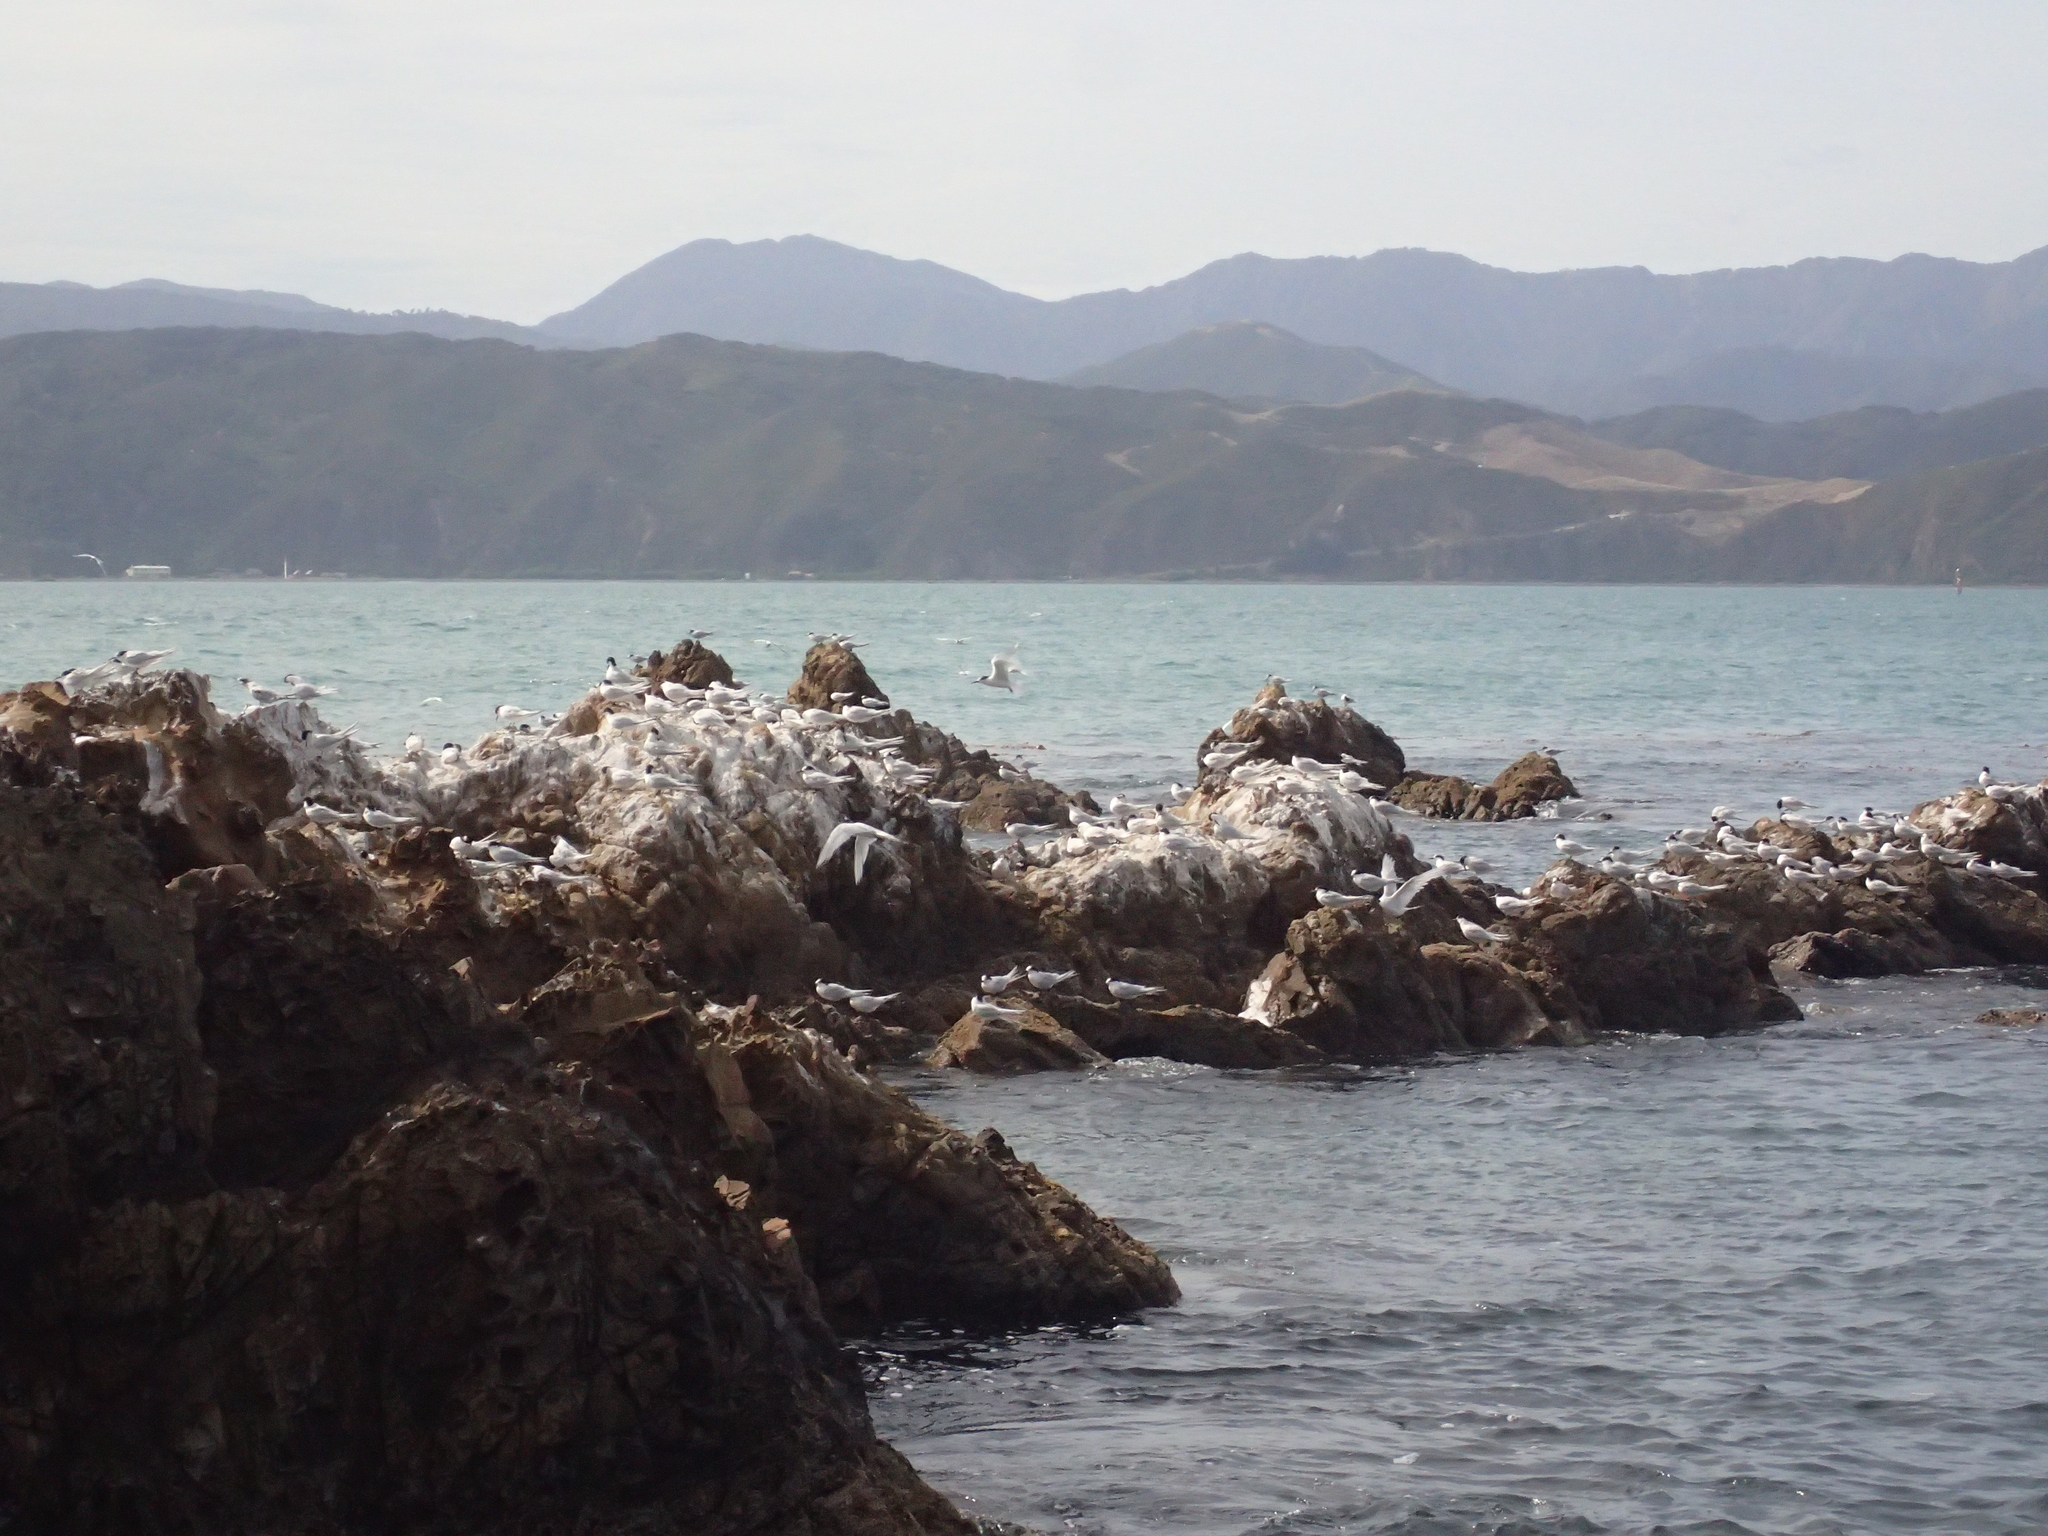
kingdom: Animalia
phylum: Chordata
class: Aves
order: Charadriiformes
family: Laridae
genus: Sterna
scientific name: Sterna striata
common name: White-fronted tern
